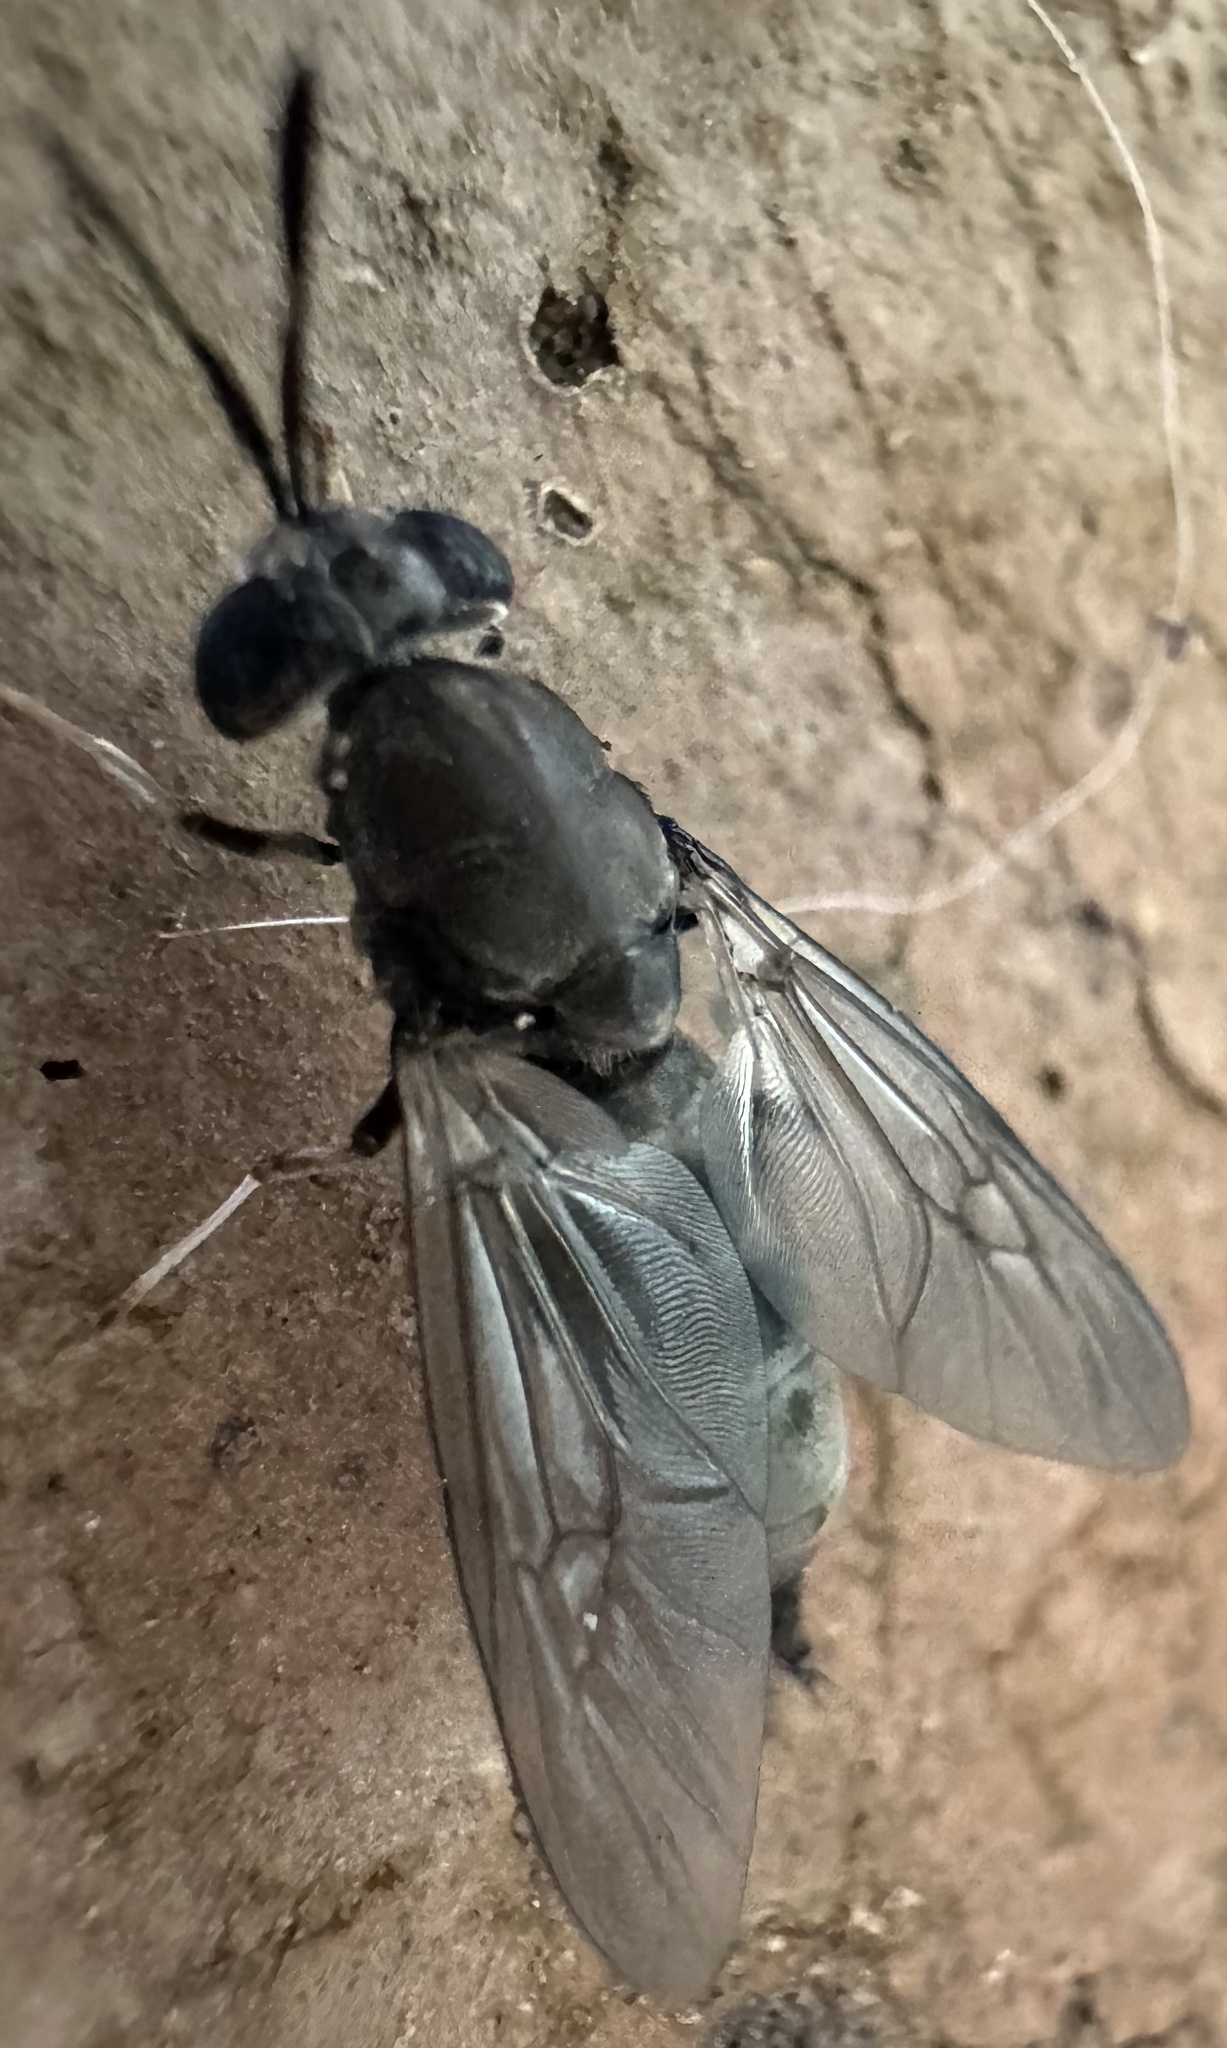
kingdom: Animalia
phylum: Arthropoda
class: Insecta
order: Diptera
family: Stratiomyidae
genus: Hermetia
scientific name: Hermetia illucens
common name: Black soldier fly
